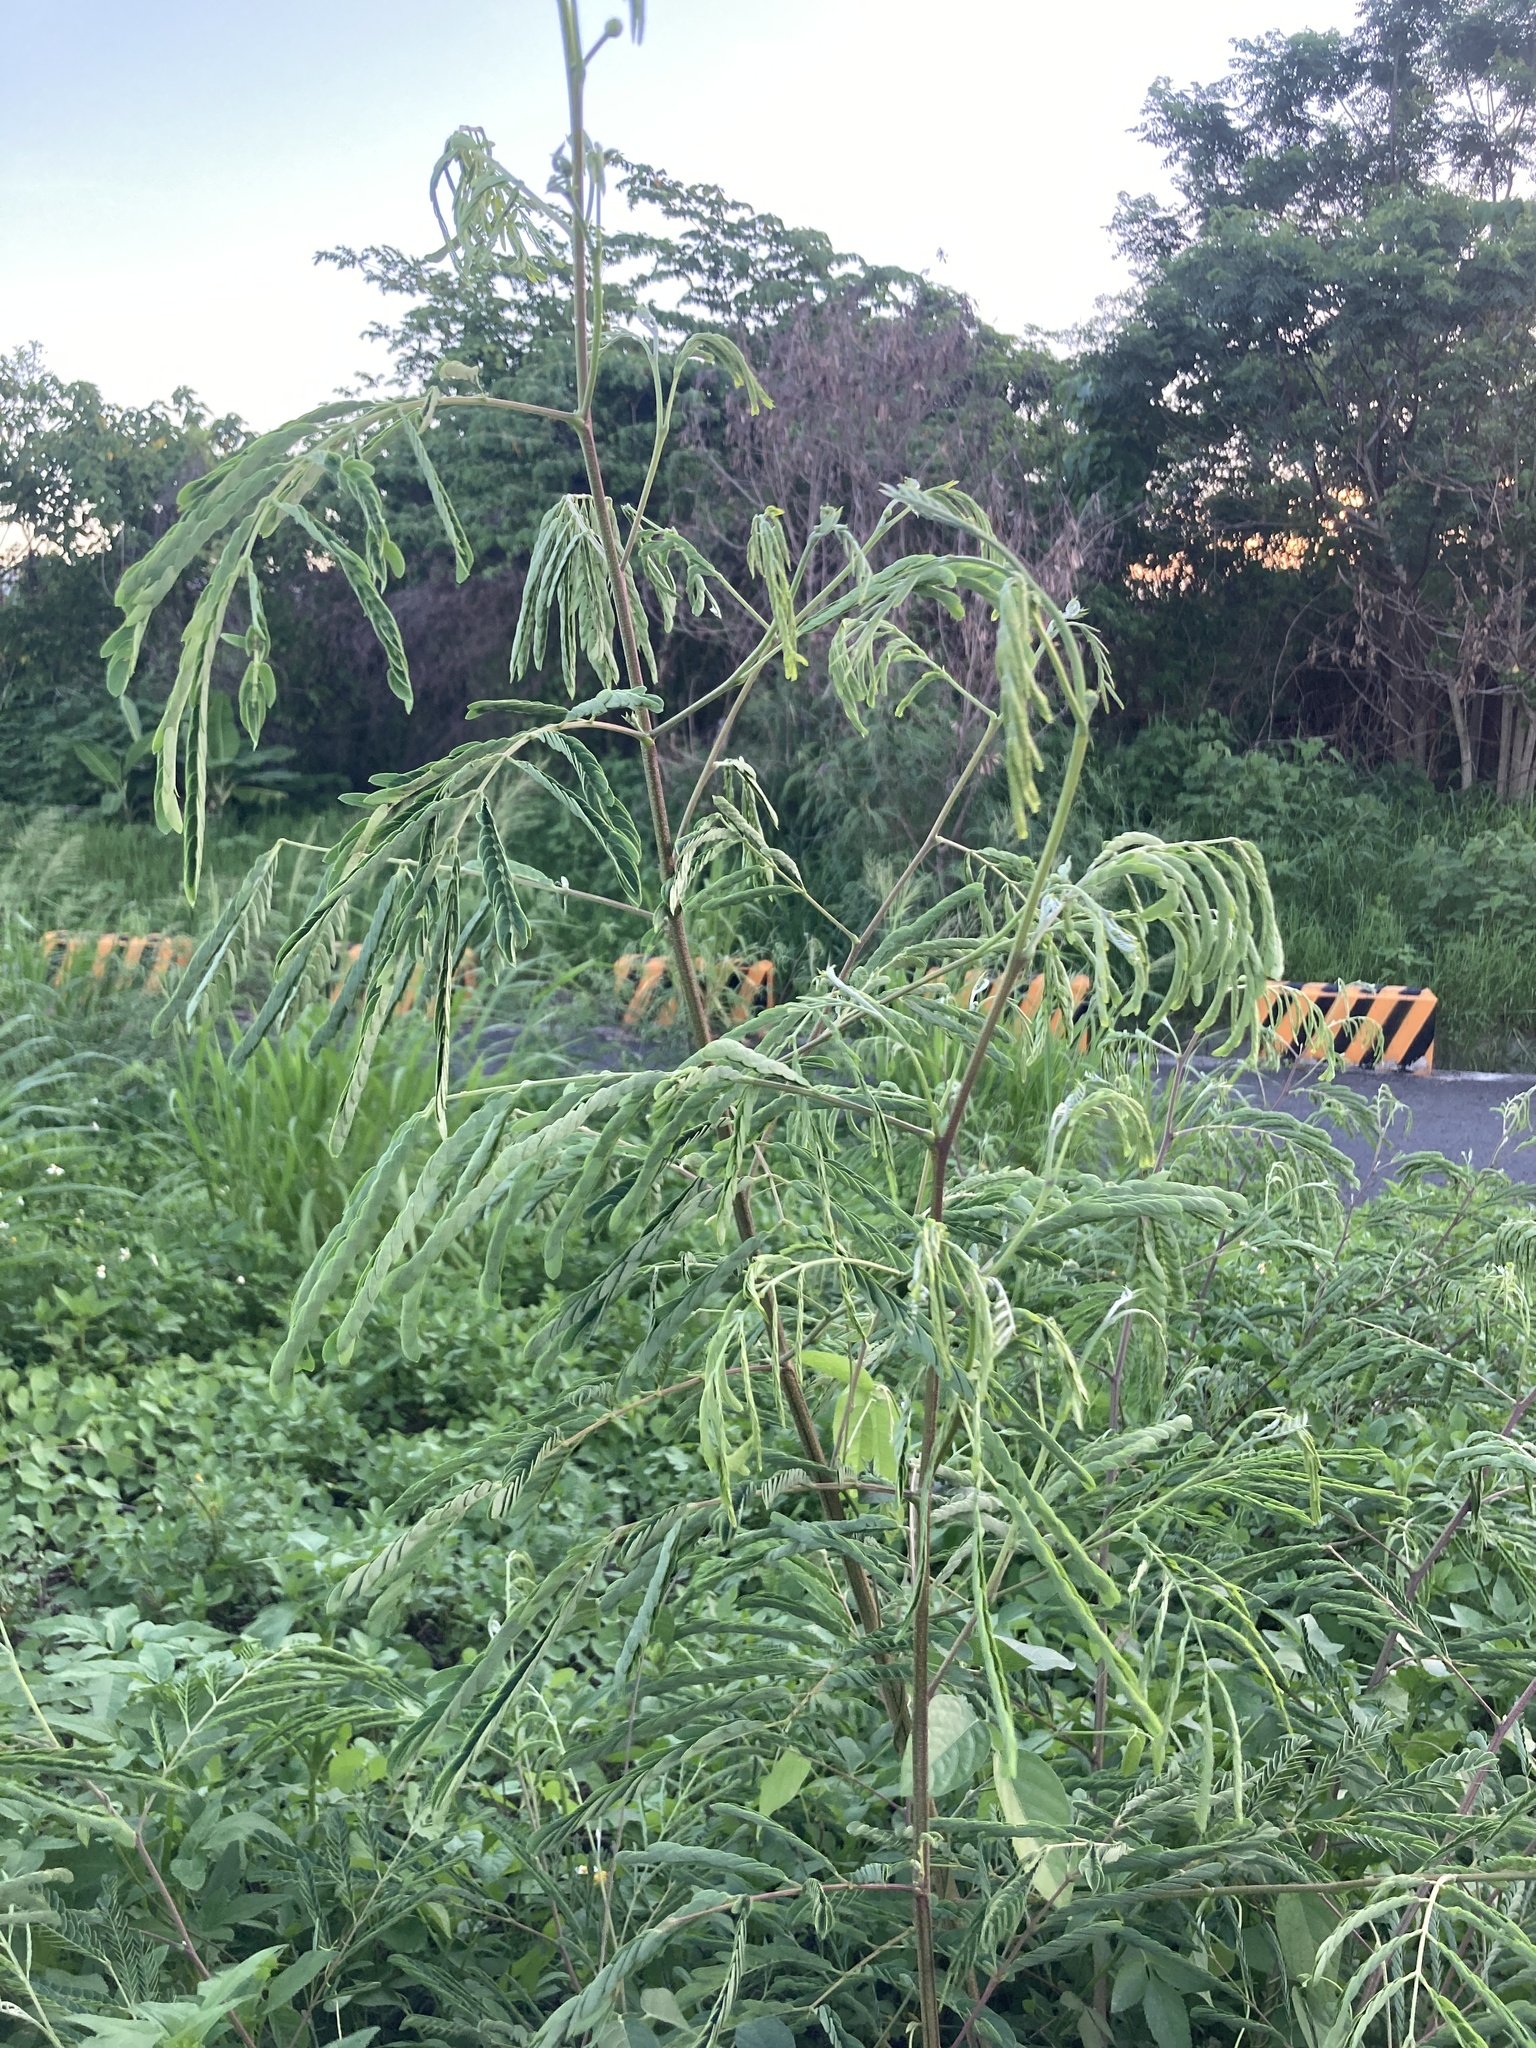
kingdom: Plantae
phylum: Tracheophyta
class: Magnoliopsida
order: Fabales
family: Fabaceae
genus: Leucaena
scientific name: Leucaena leucocephala
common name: White leadtree
